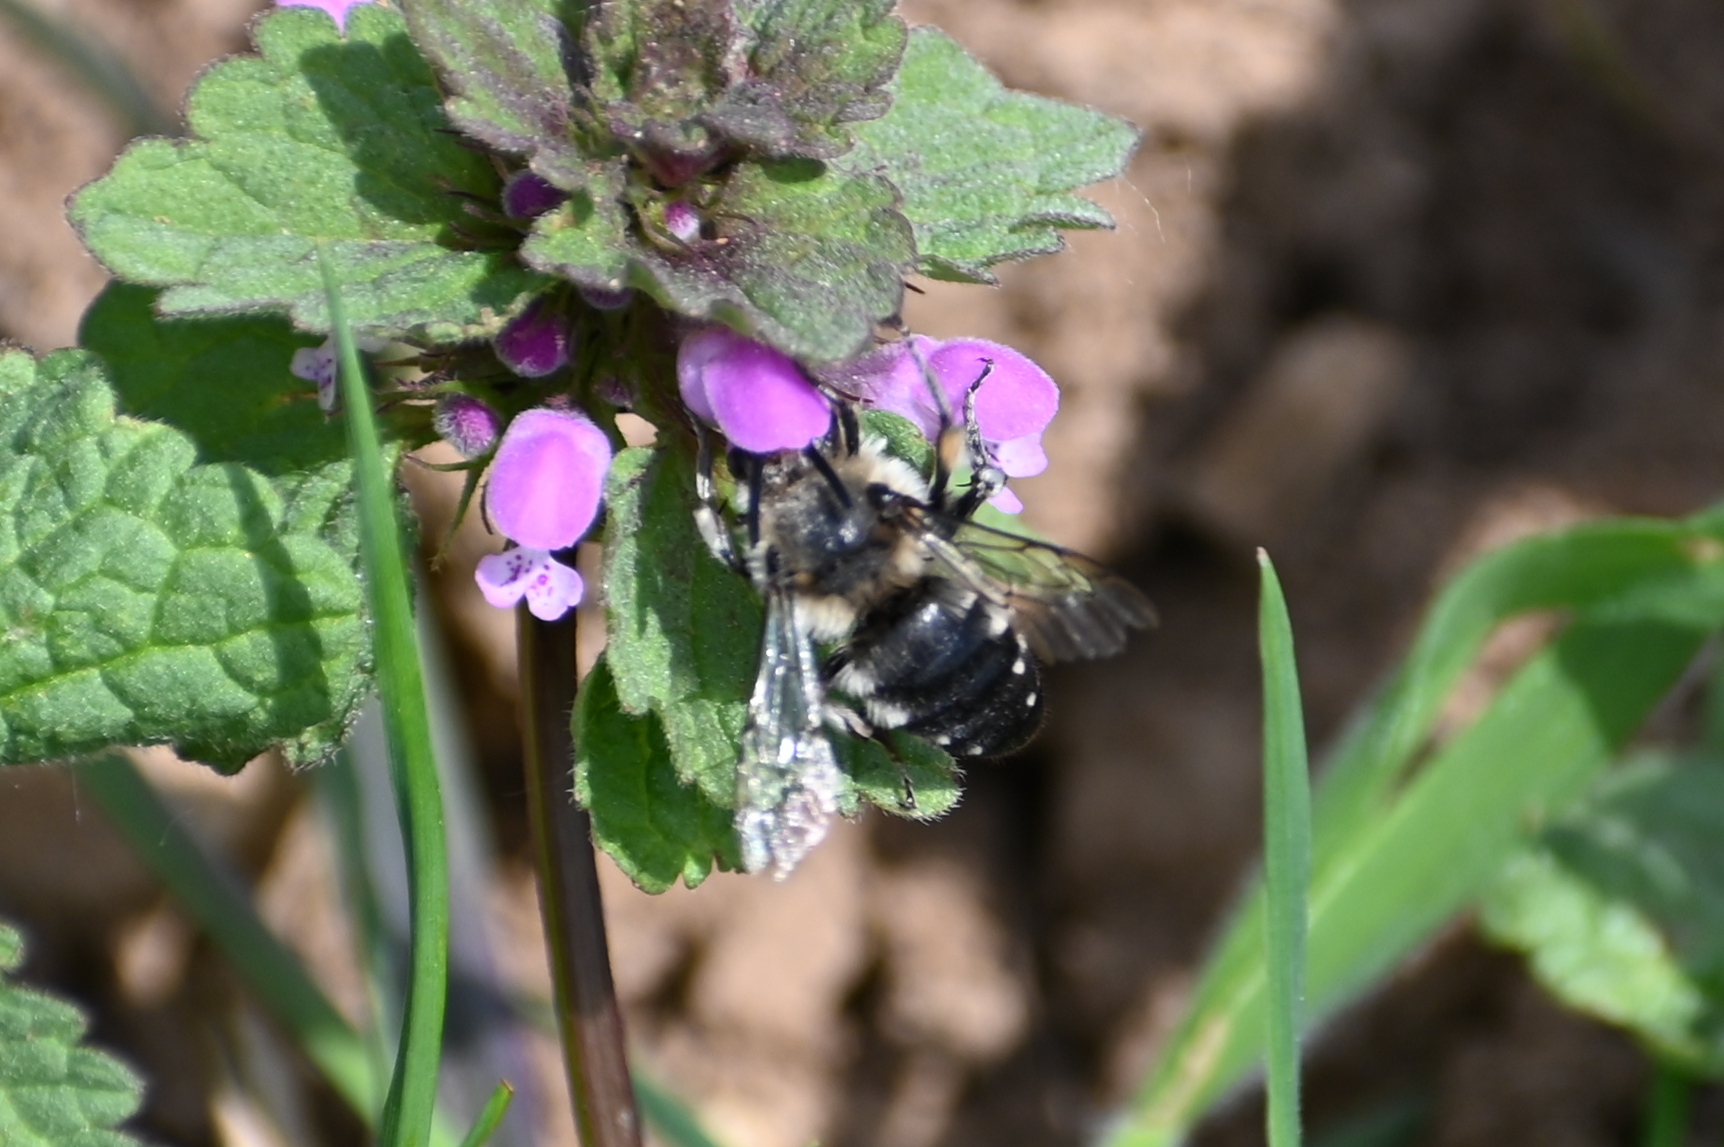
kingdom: Animalia
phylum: Arthropoda
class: Insecta
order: Hymenoptera
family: Apidae
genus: Melecta
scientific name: Melecta albifrons
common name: Common mourning bee
